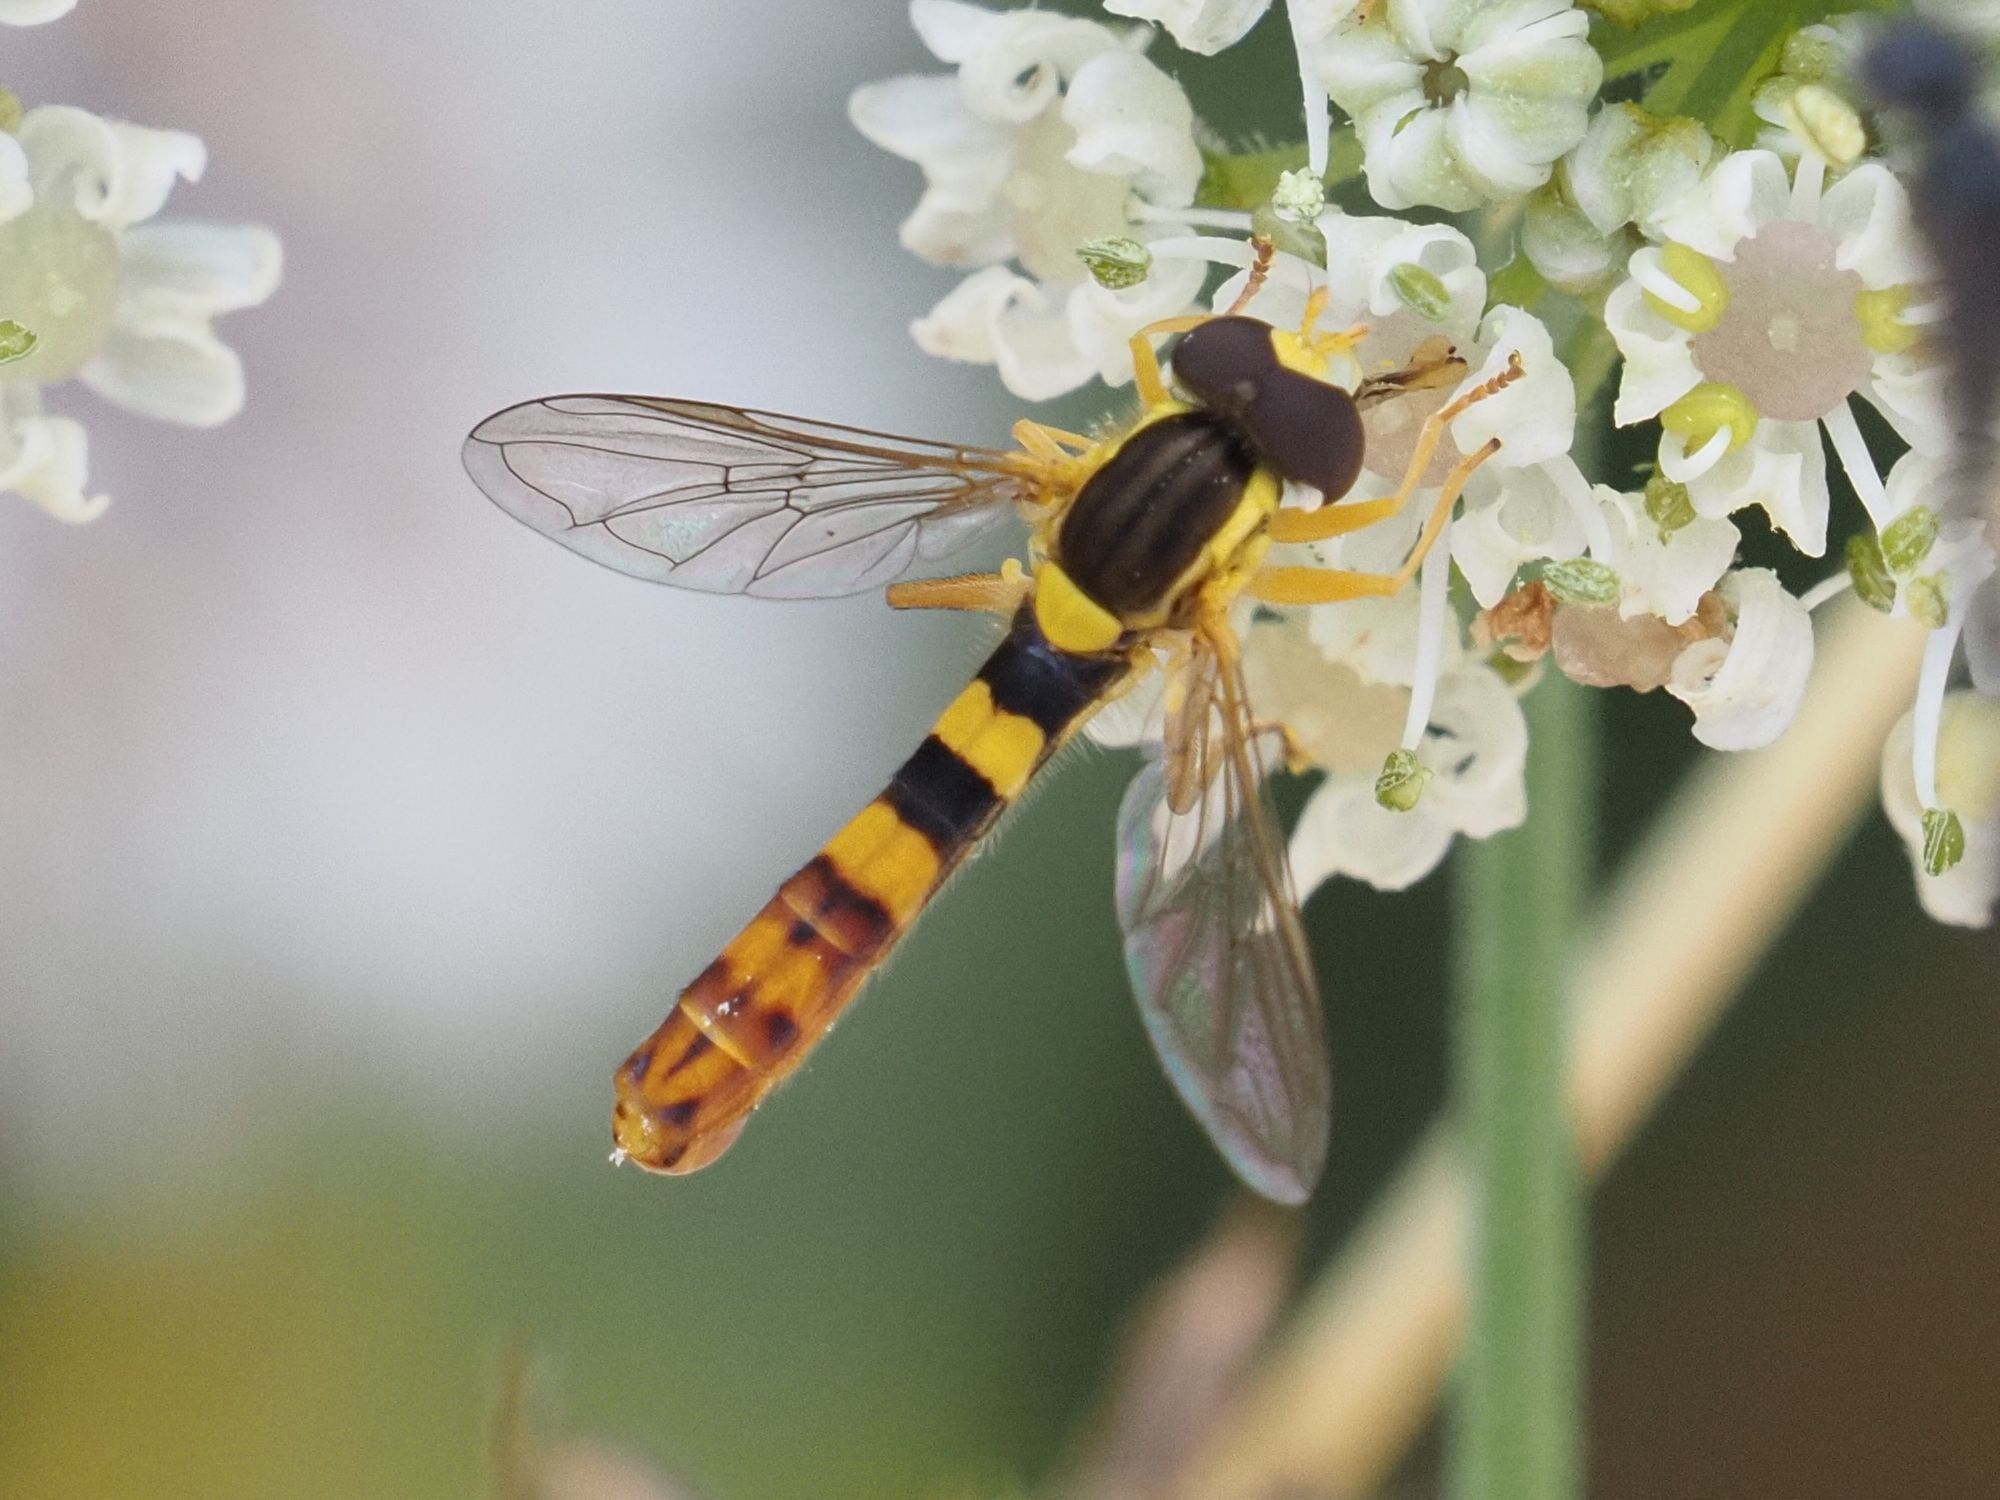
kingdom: Animalia
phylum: Arthropoda
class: Insecta
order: Diptera
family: Syrphidae
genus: Sphaerophoria
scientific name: Sphaerophoria scripta
